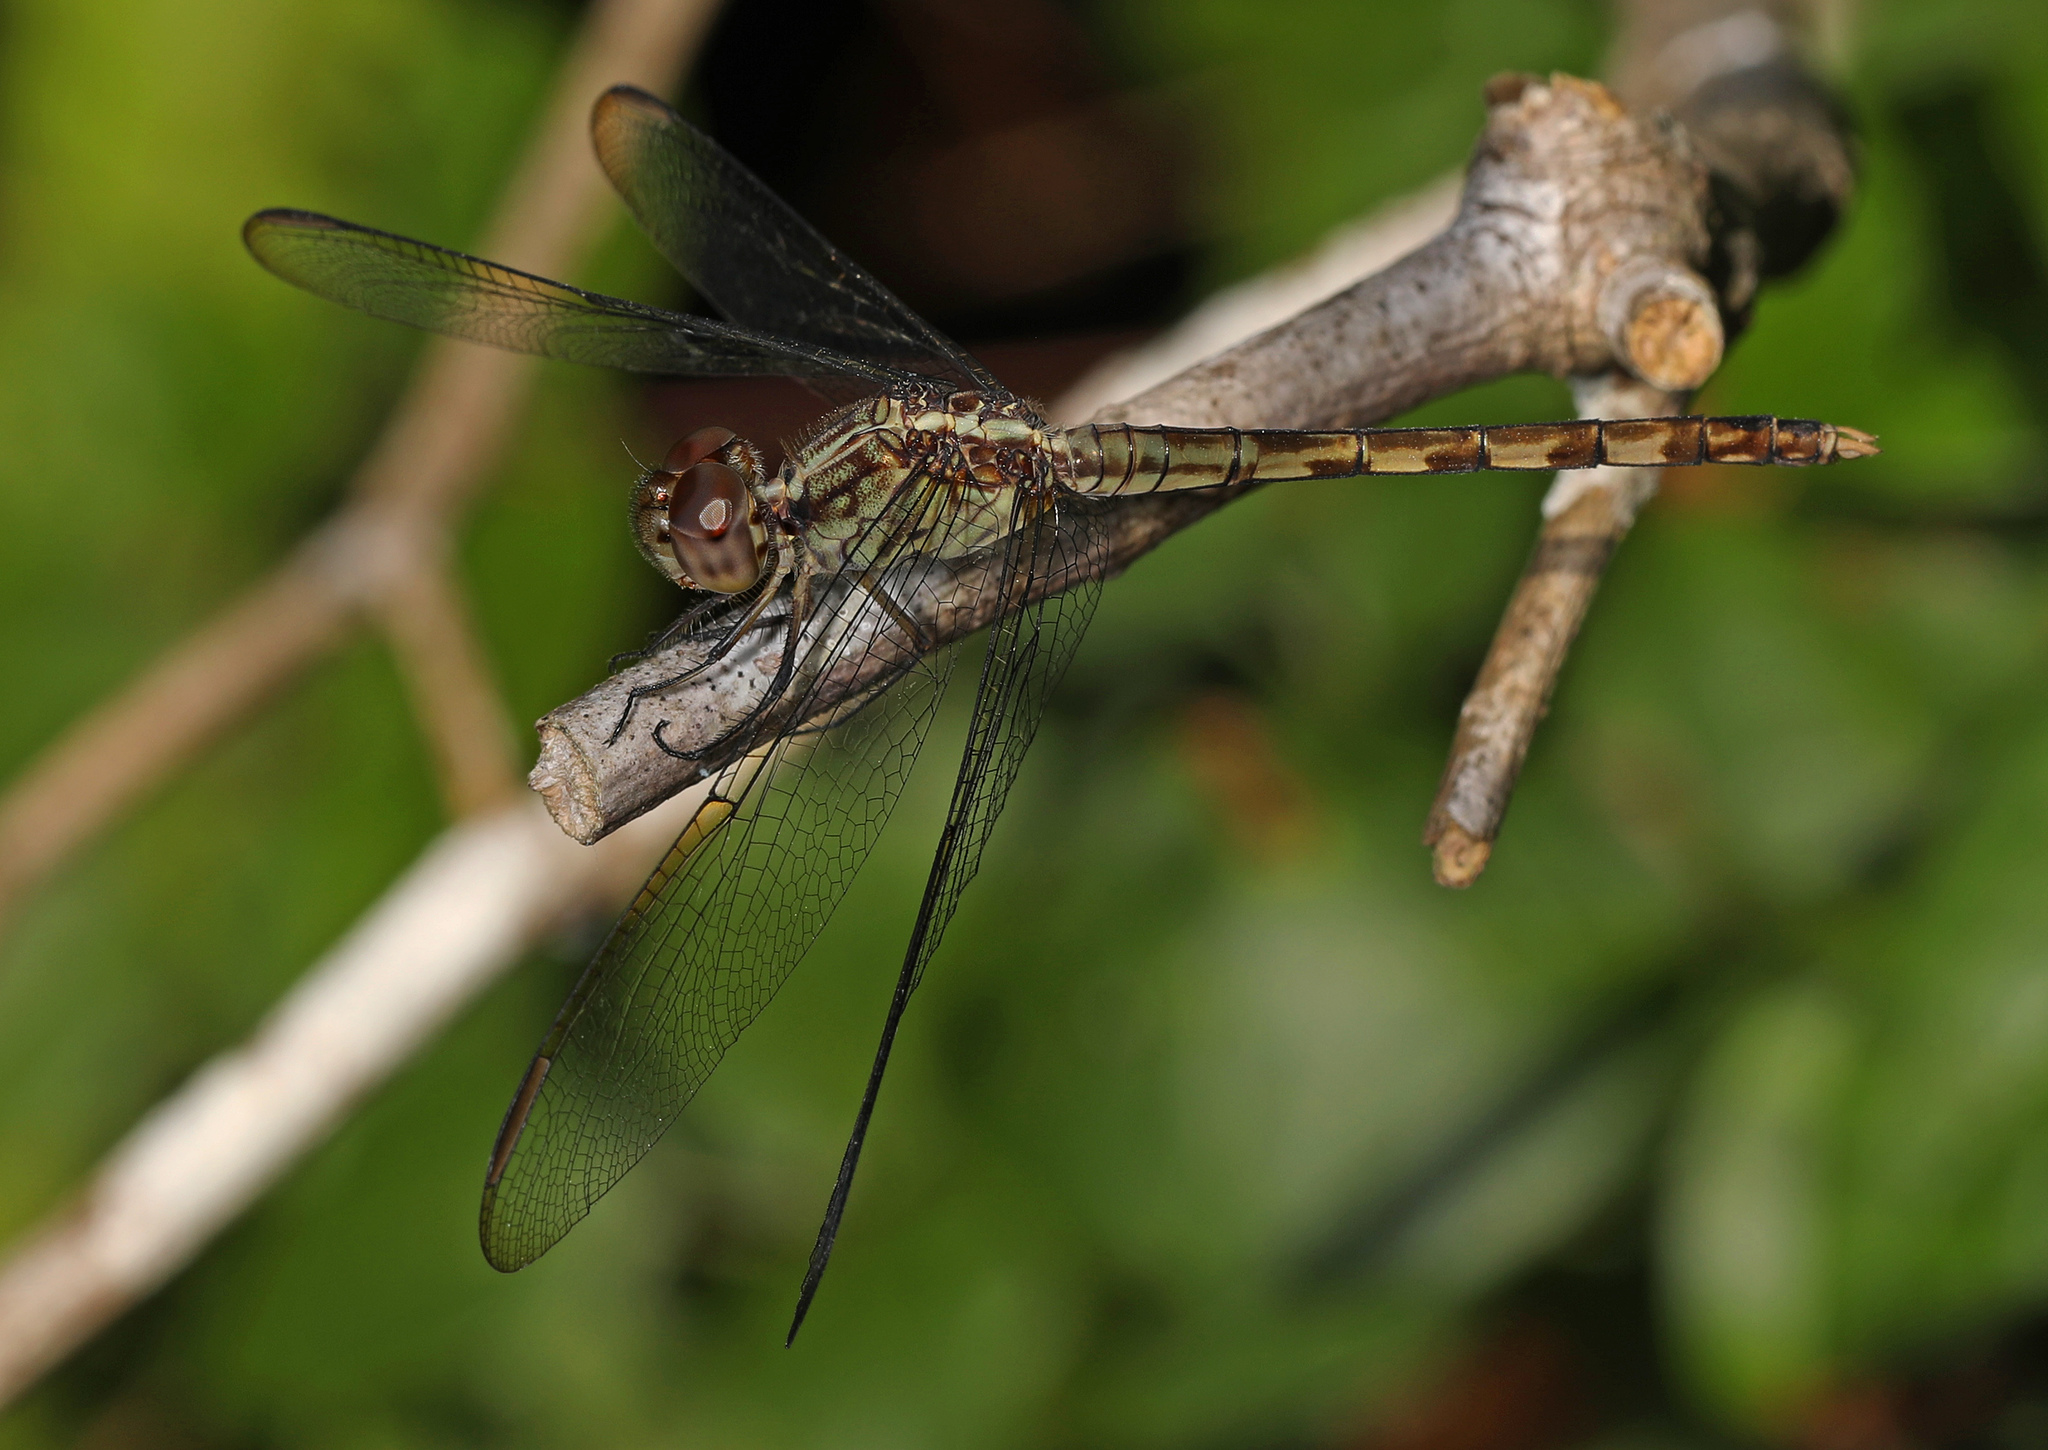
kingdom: Animalia
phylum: Arthropoda
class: Insecta
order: Odonata
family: Libellulidae
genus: Erythrodiplax
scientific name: Erythrodiplax umbrata
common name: Band-winged dragonlet
